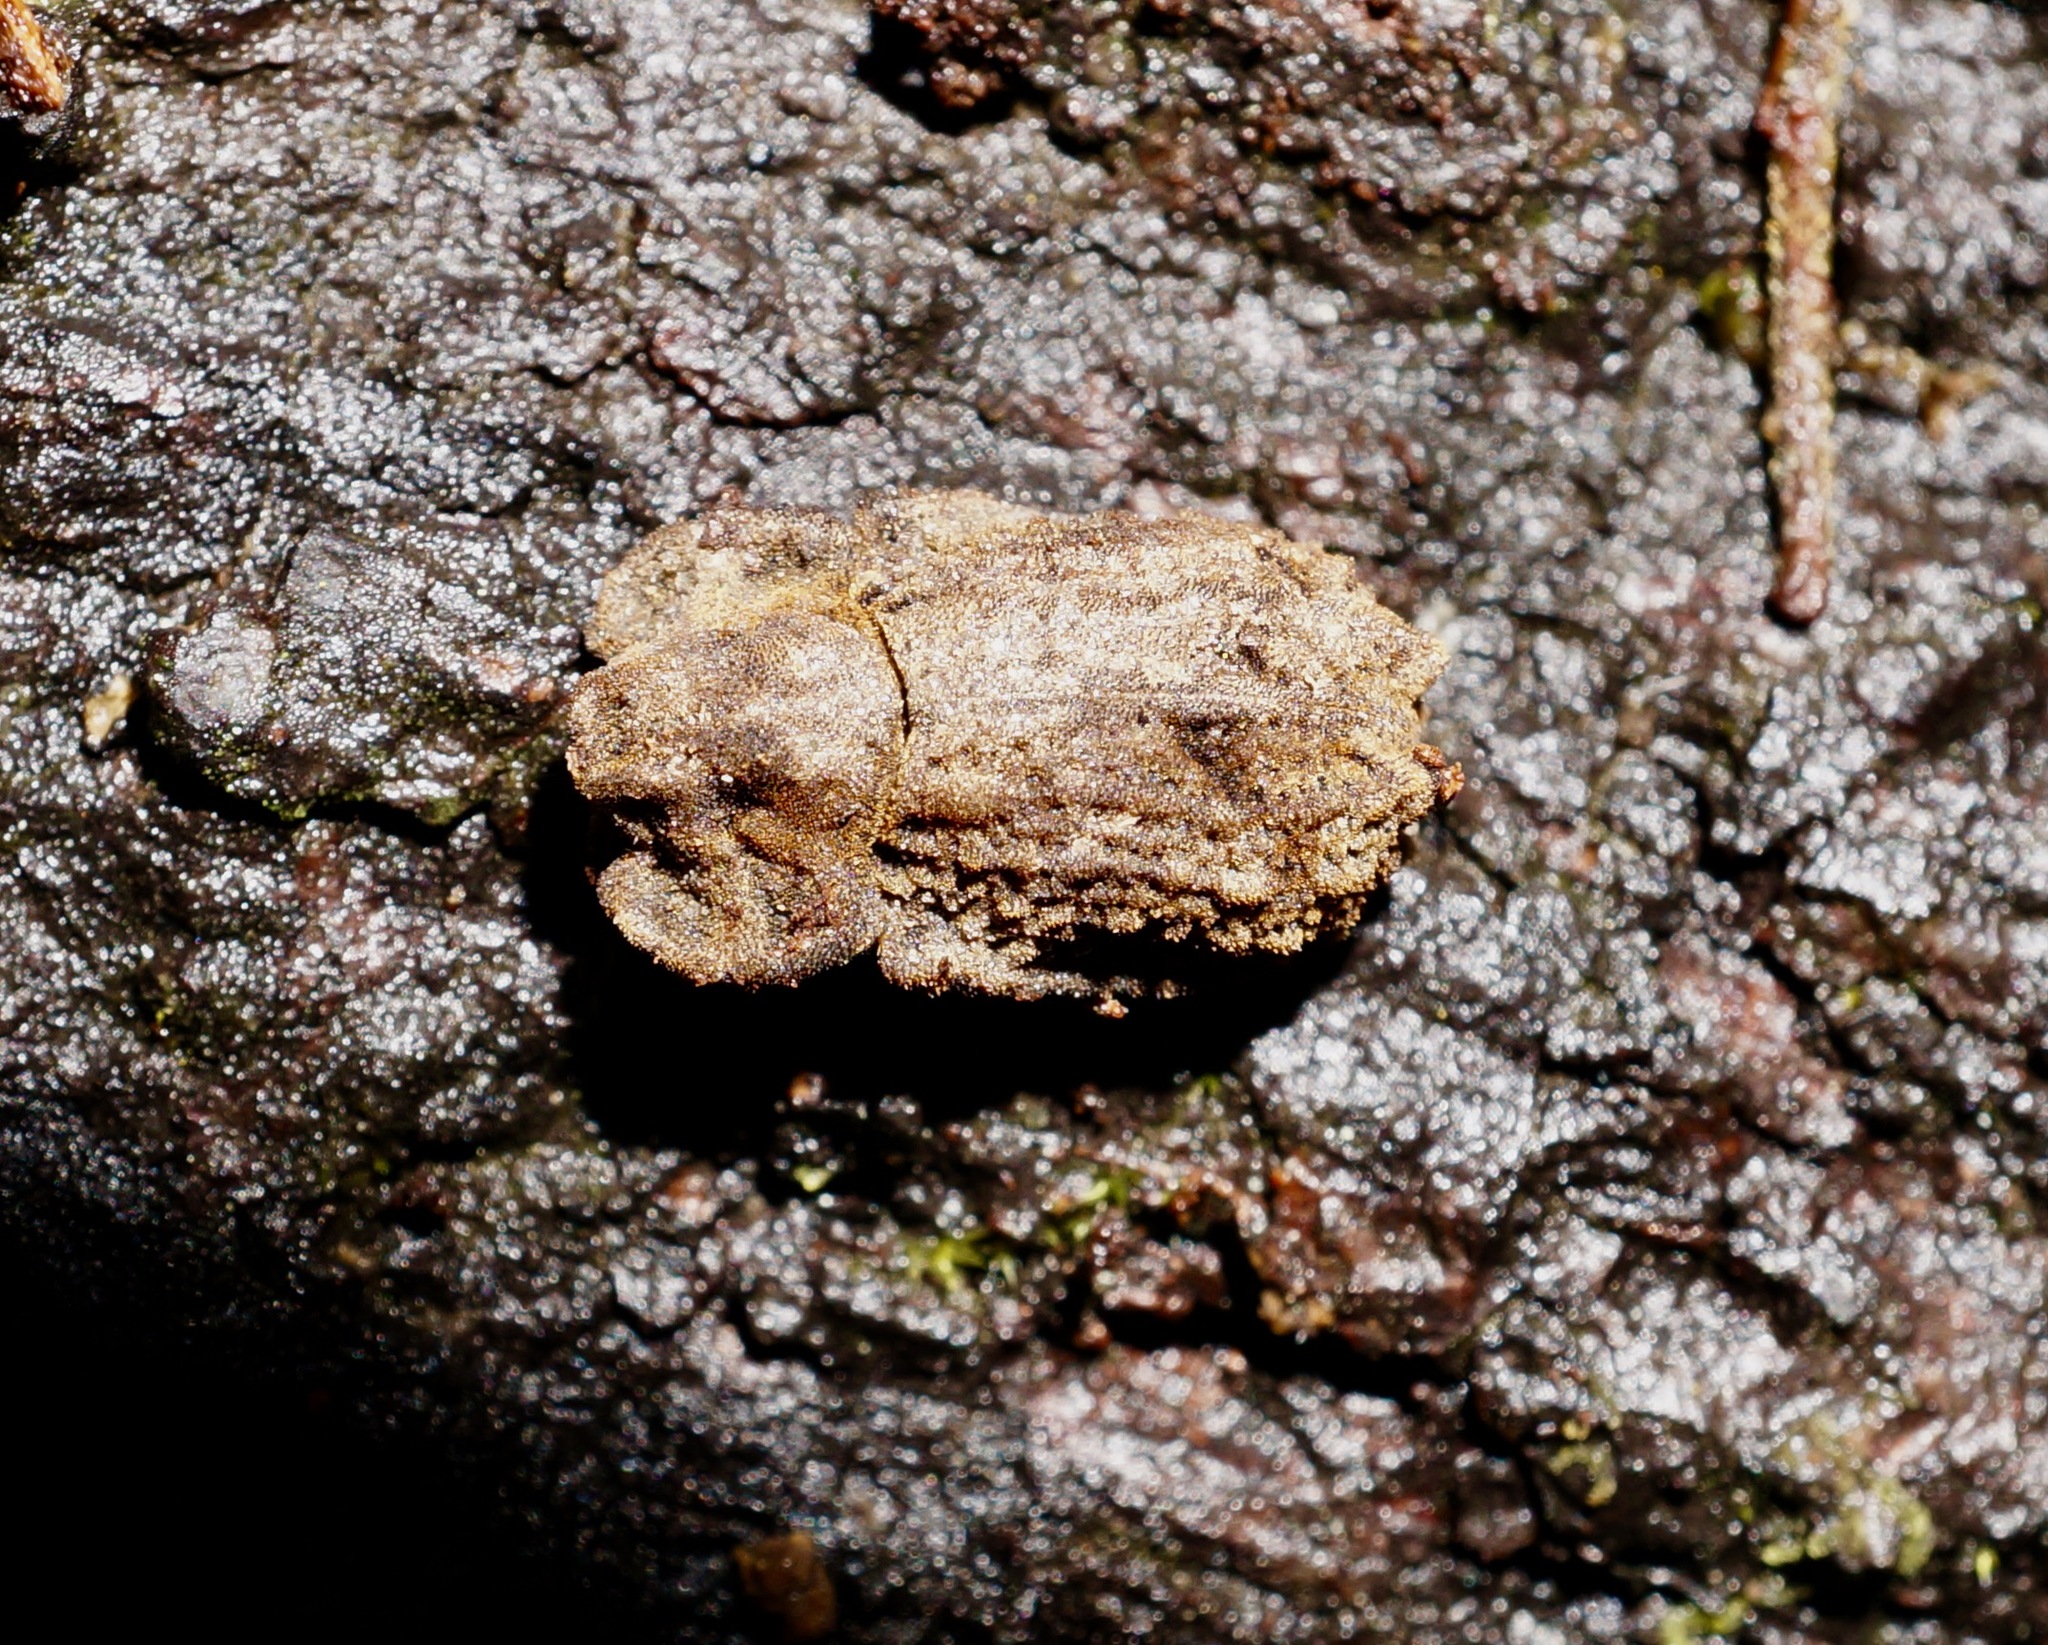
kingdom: Animalia
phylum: Arthropoda
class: Insecta
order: Coleoptera
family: Zopheridae
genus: Pristoderus
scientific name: Pristoderus
